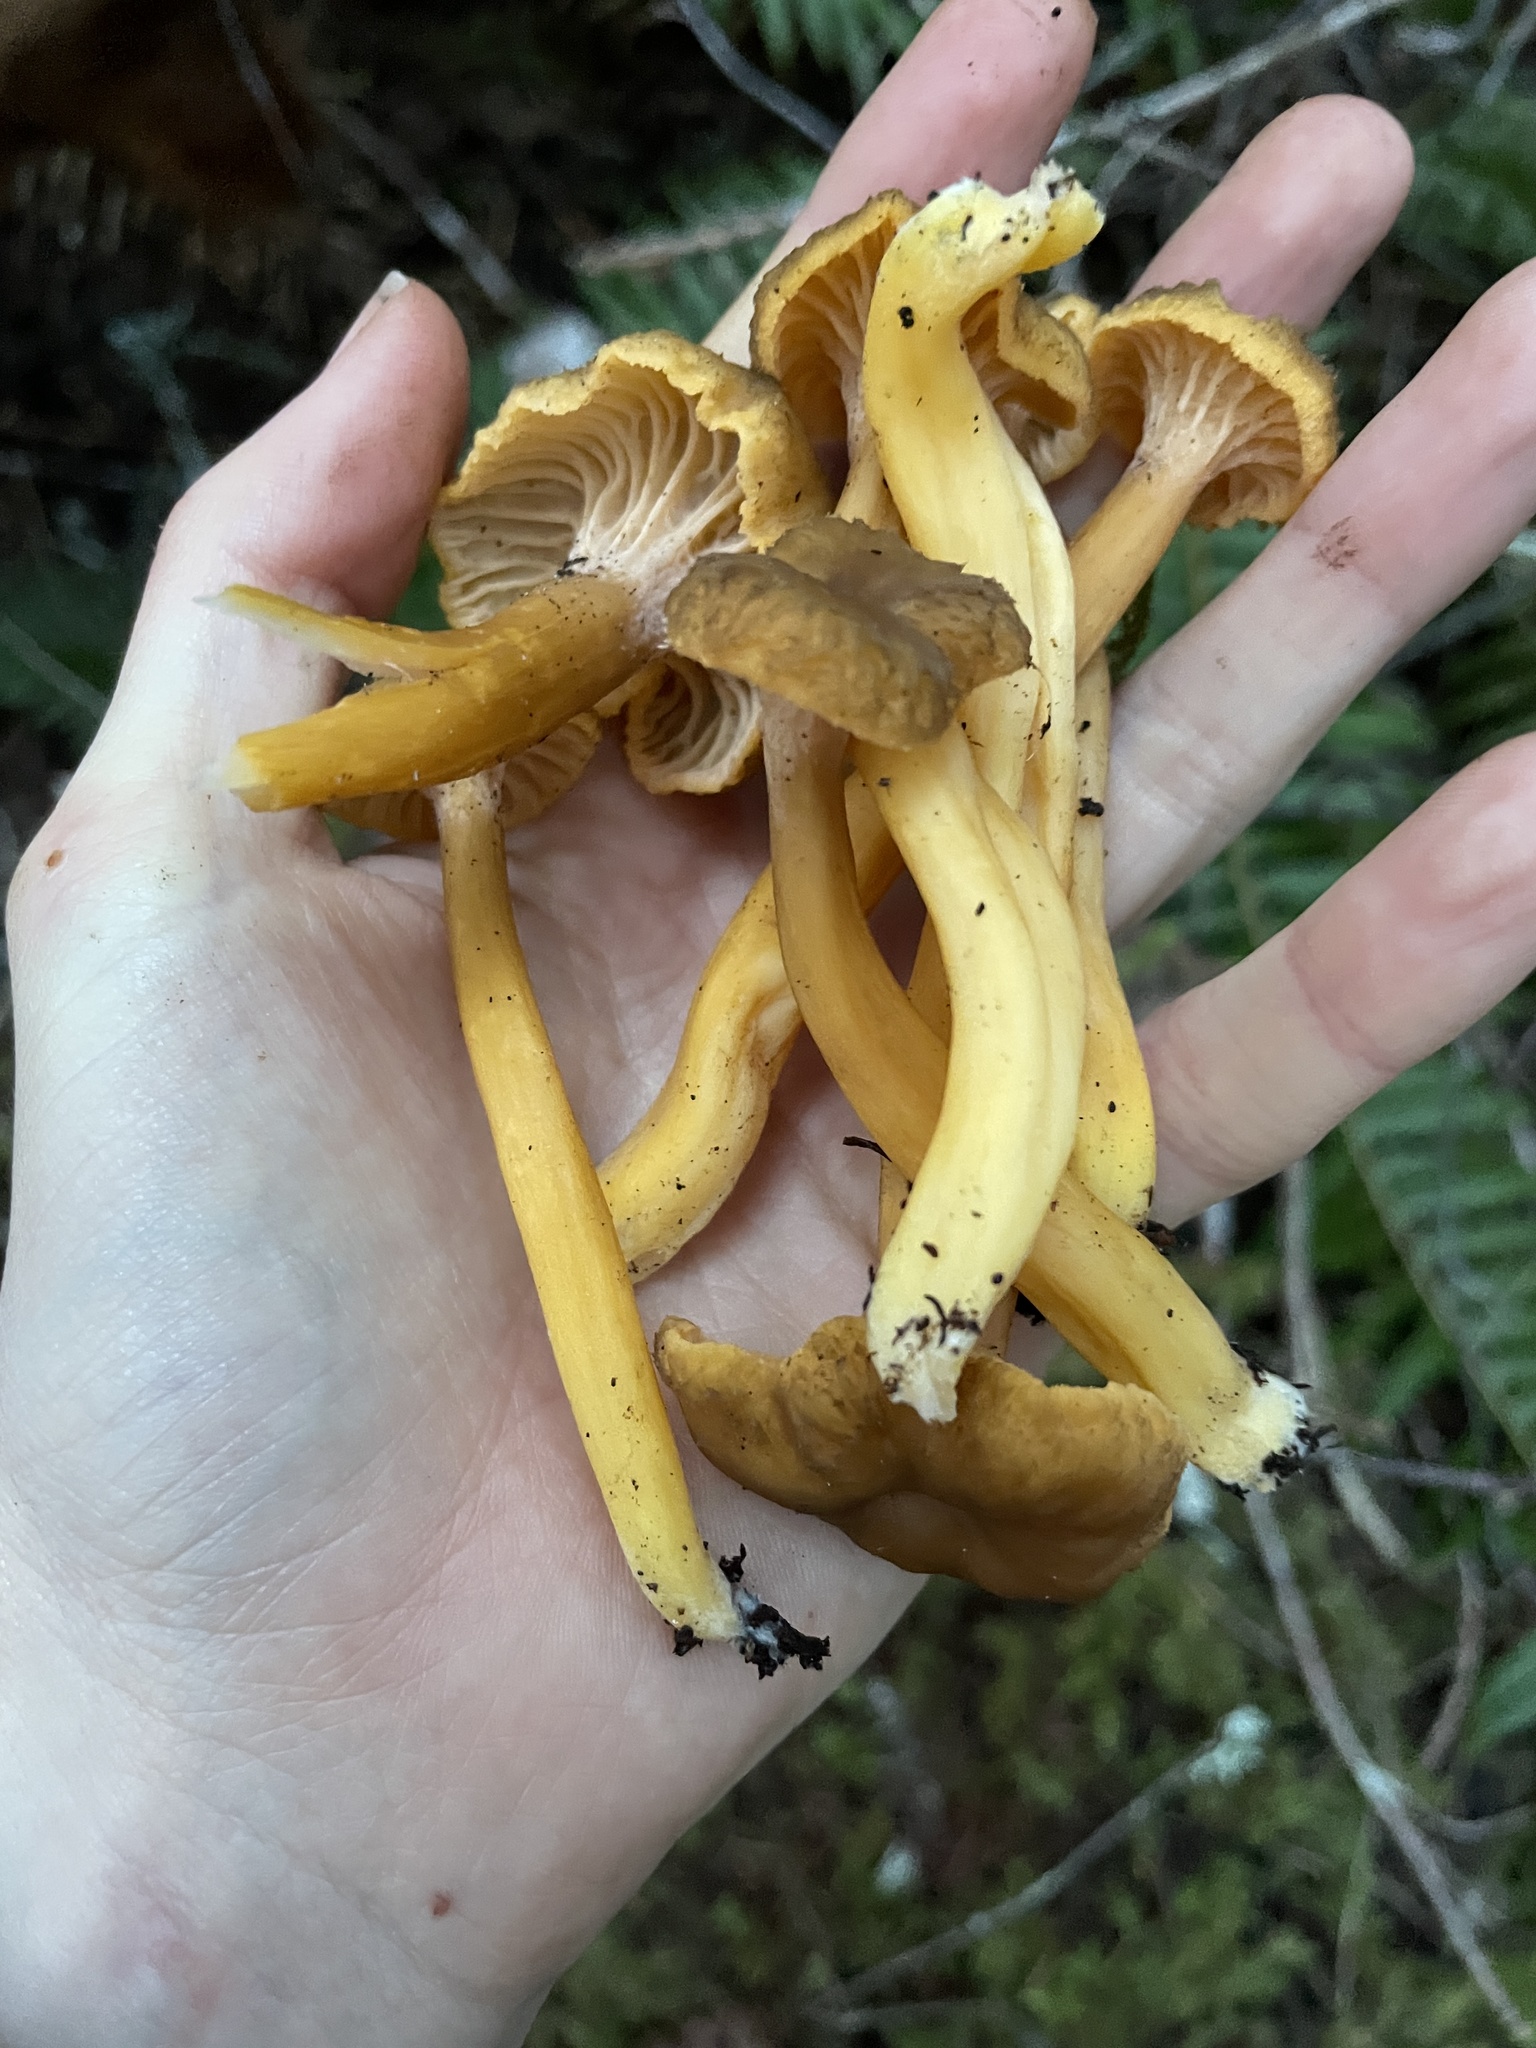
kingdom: Fungi
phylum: Basidiomycota
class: Agaricomycetes
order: Cantharellales
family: Hydnaceae
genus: Craterellus
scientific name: Craterellus tubaeformis
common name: Yellowfoot
